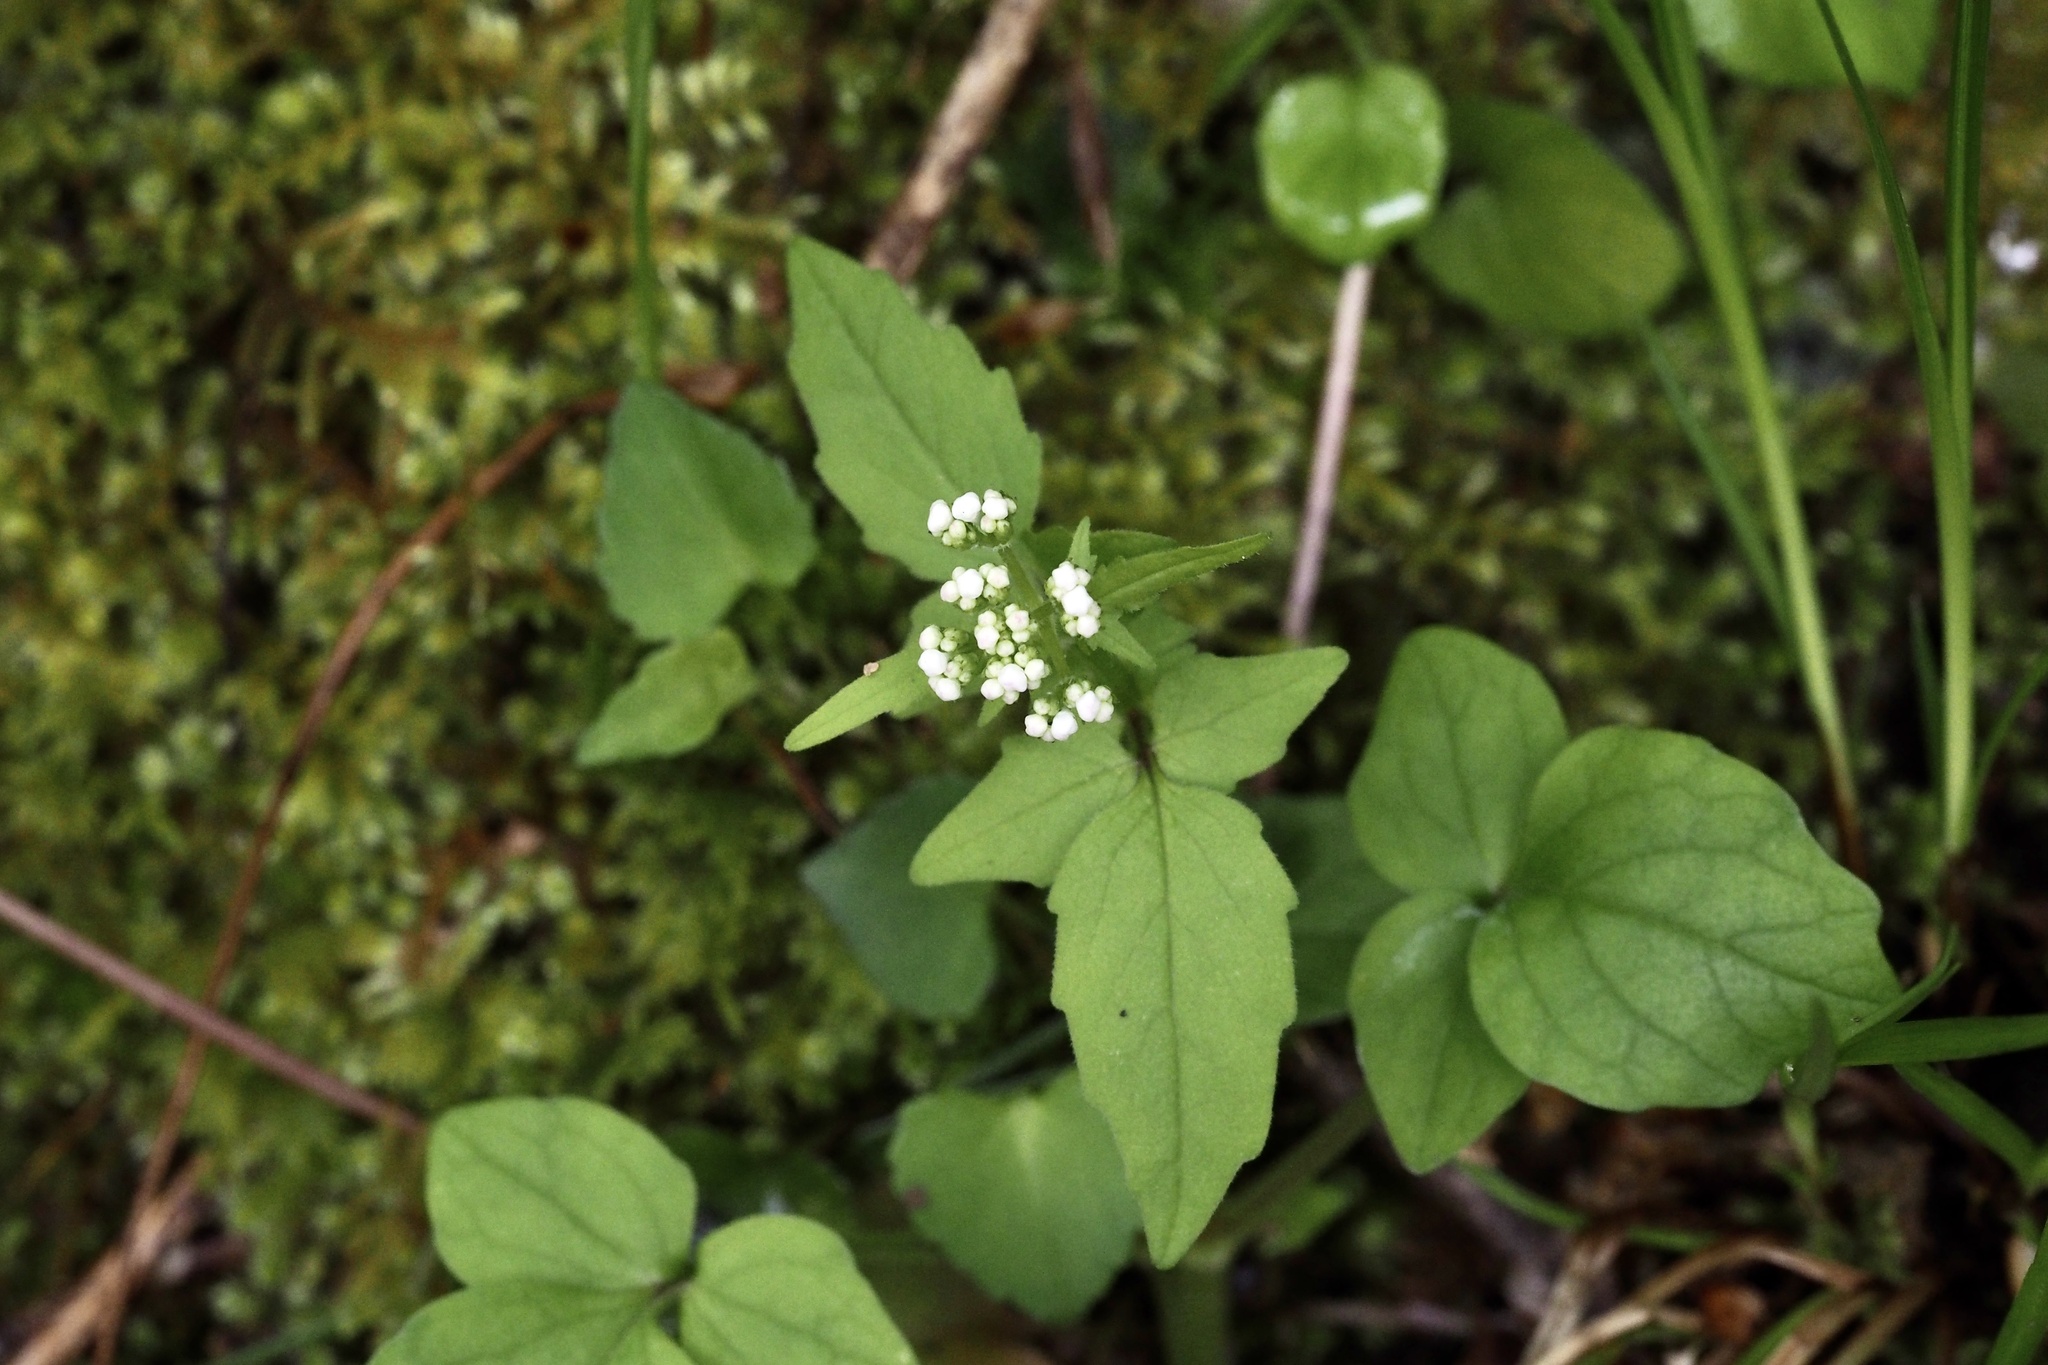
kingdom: Plantae
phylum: Tracheophyta
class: Magnoliopsida
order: Dipsacales
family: Caprifoliaceae
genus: Valeriana
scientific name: Valeriana flaccidissima
